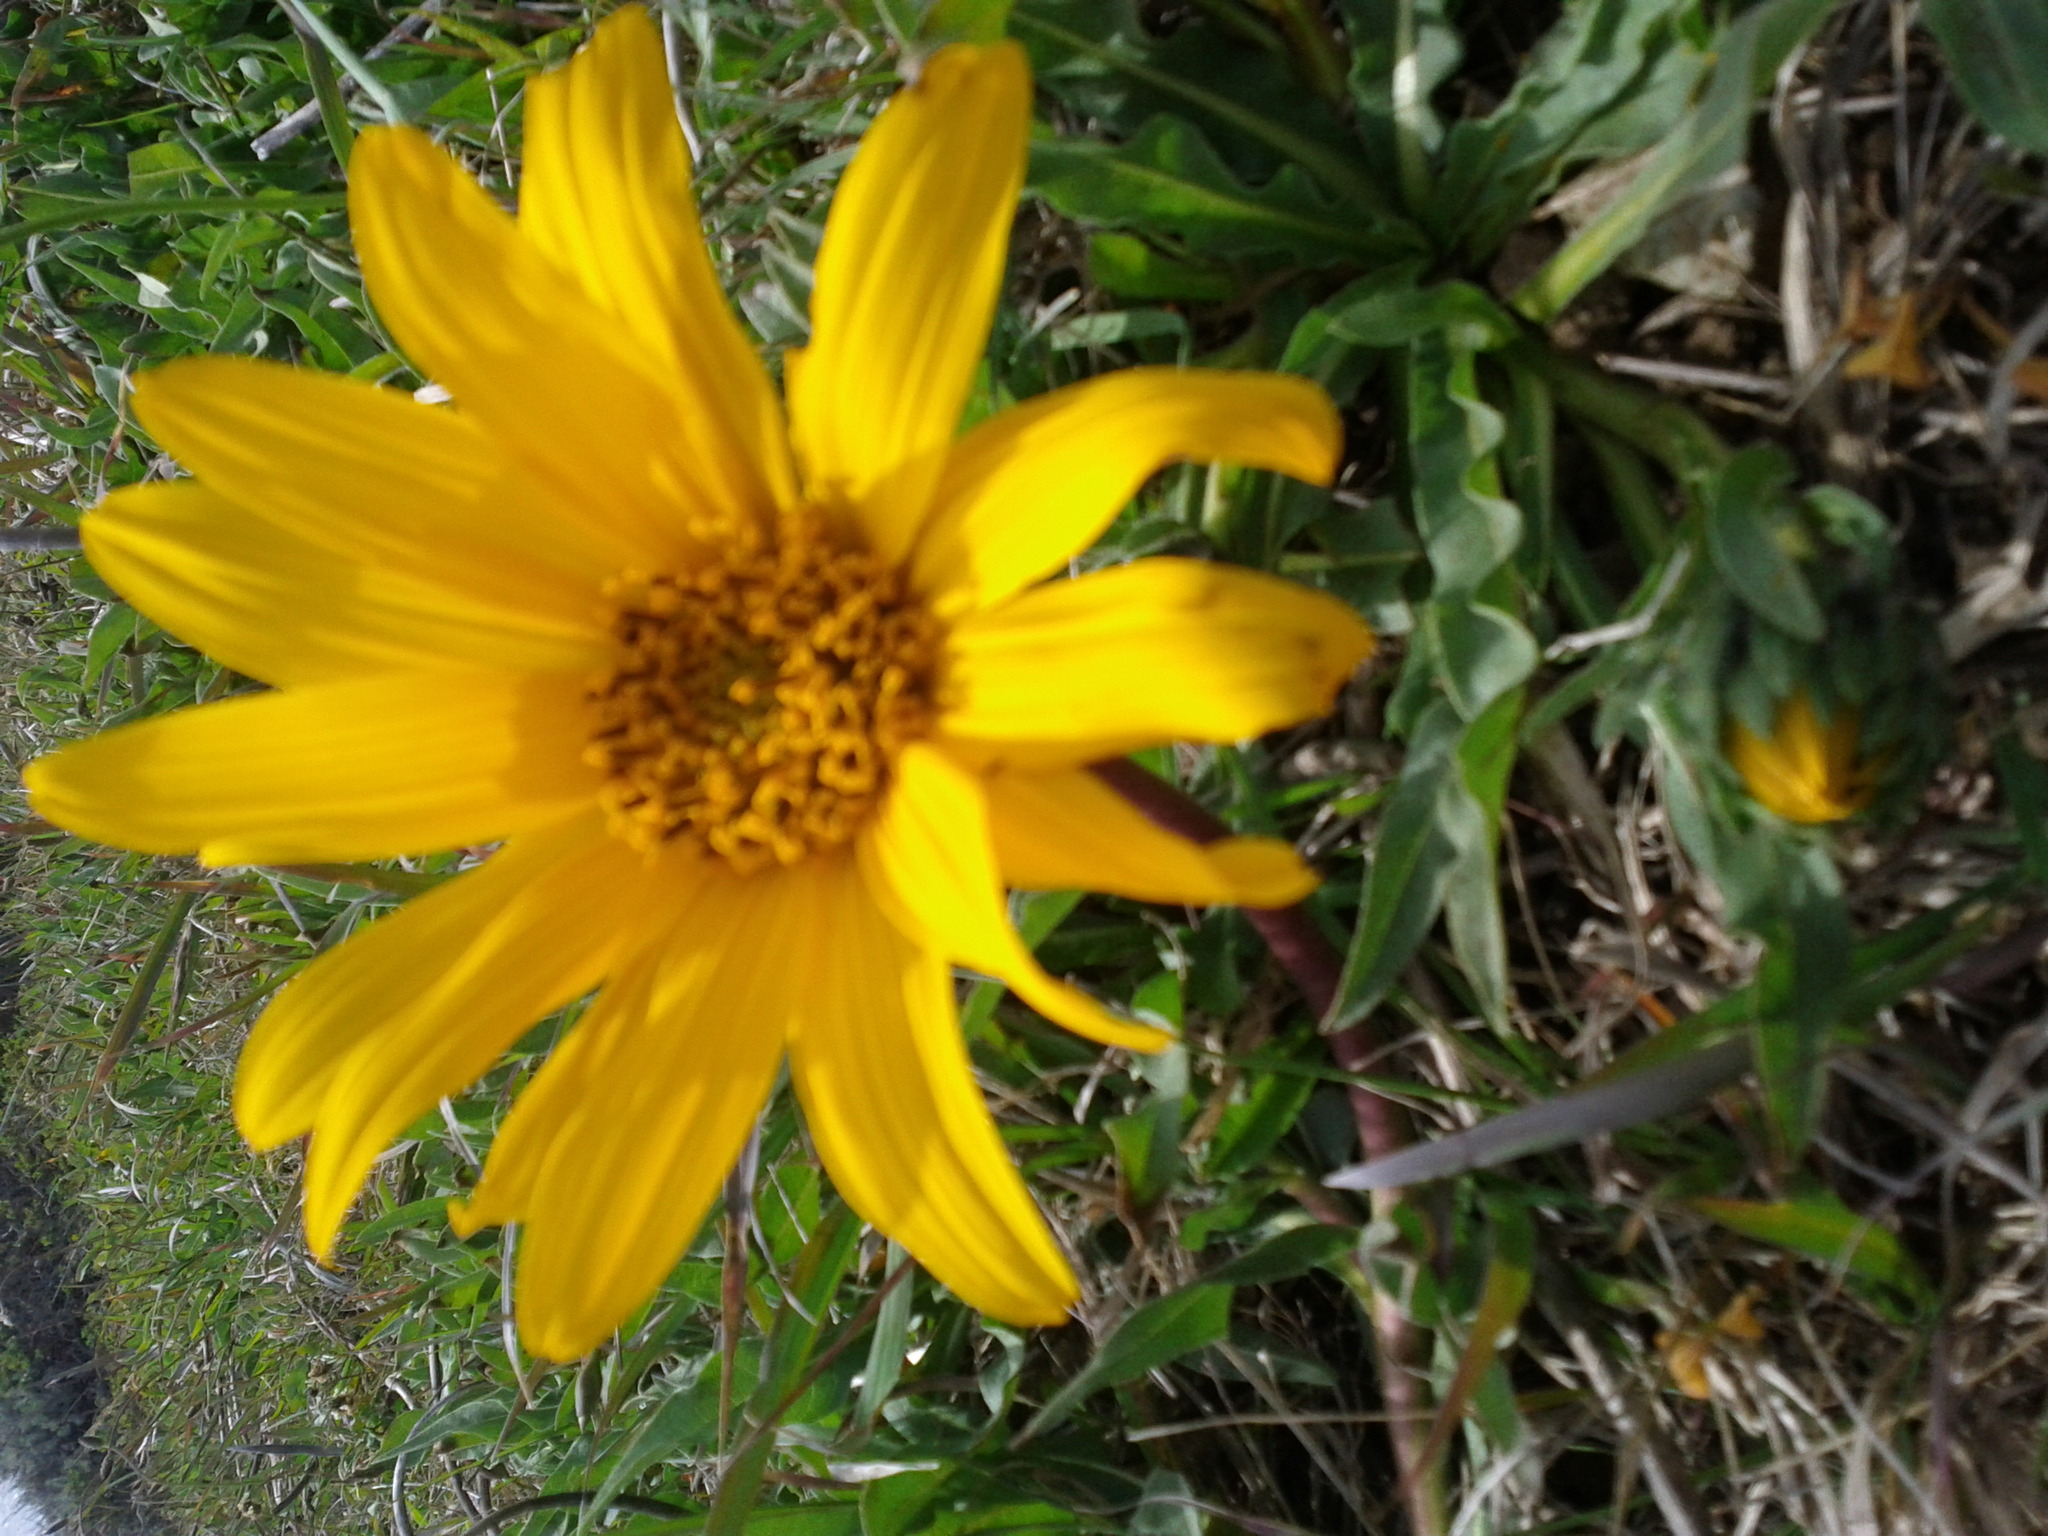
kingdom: Plantae
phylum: Tracheophyta
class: Magnoliopsida
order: Asterales
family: Asteraceae
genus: Wyethia
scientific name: Wyethia angustifolia
